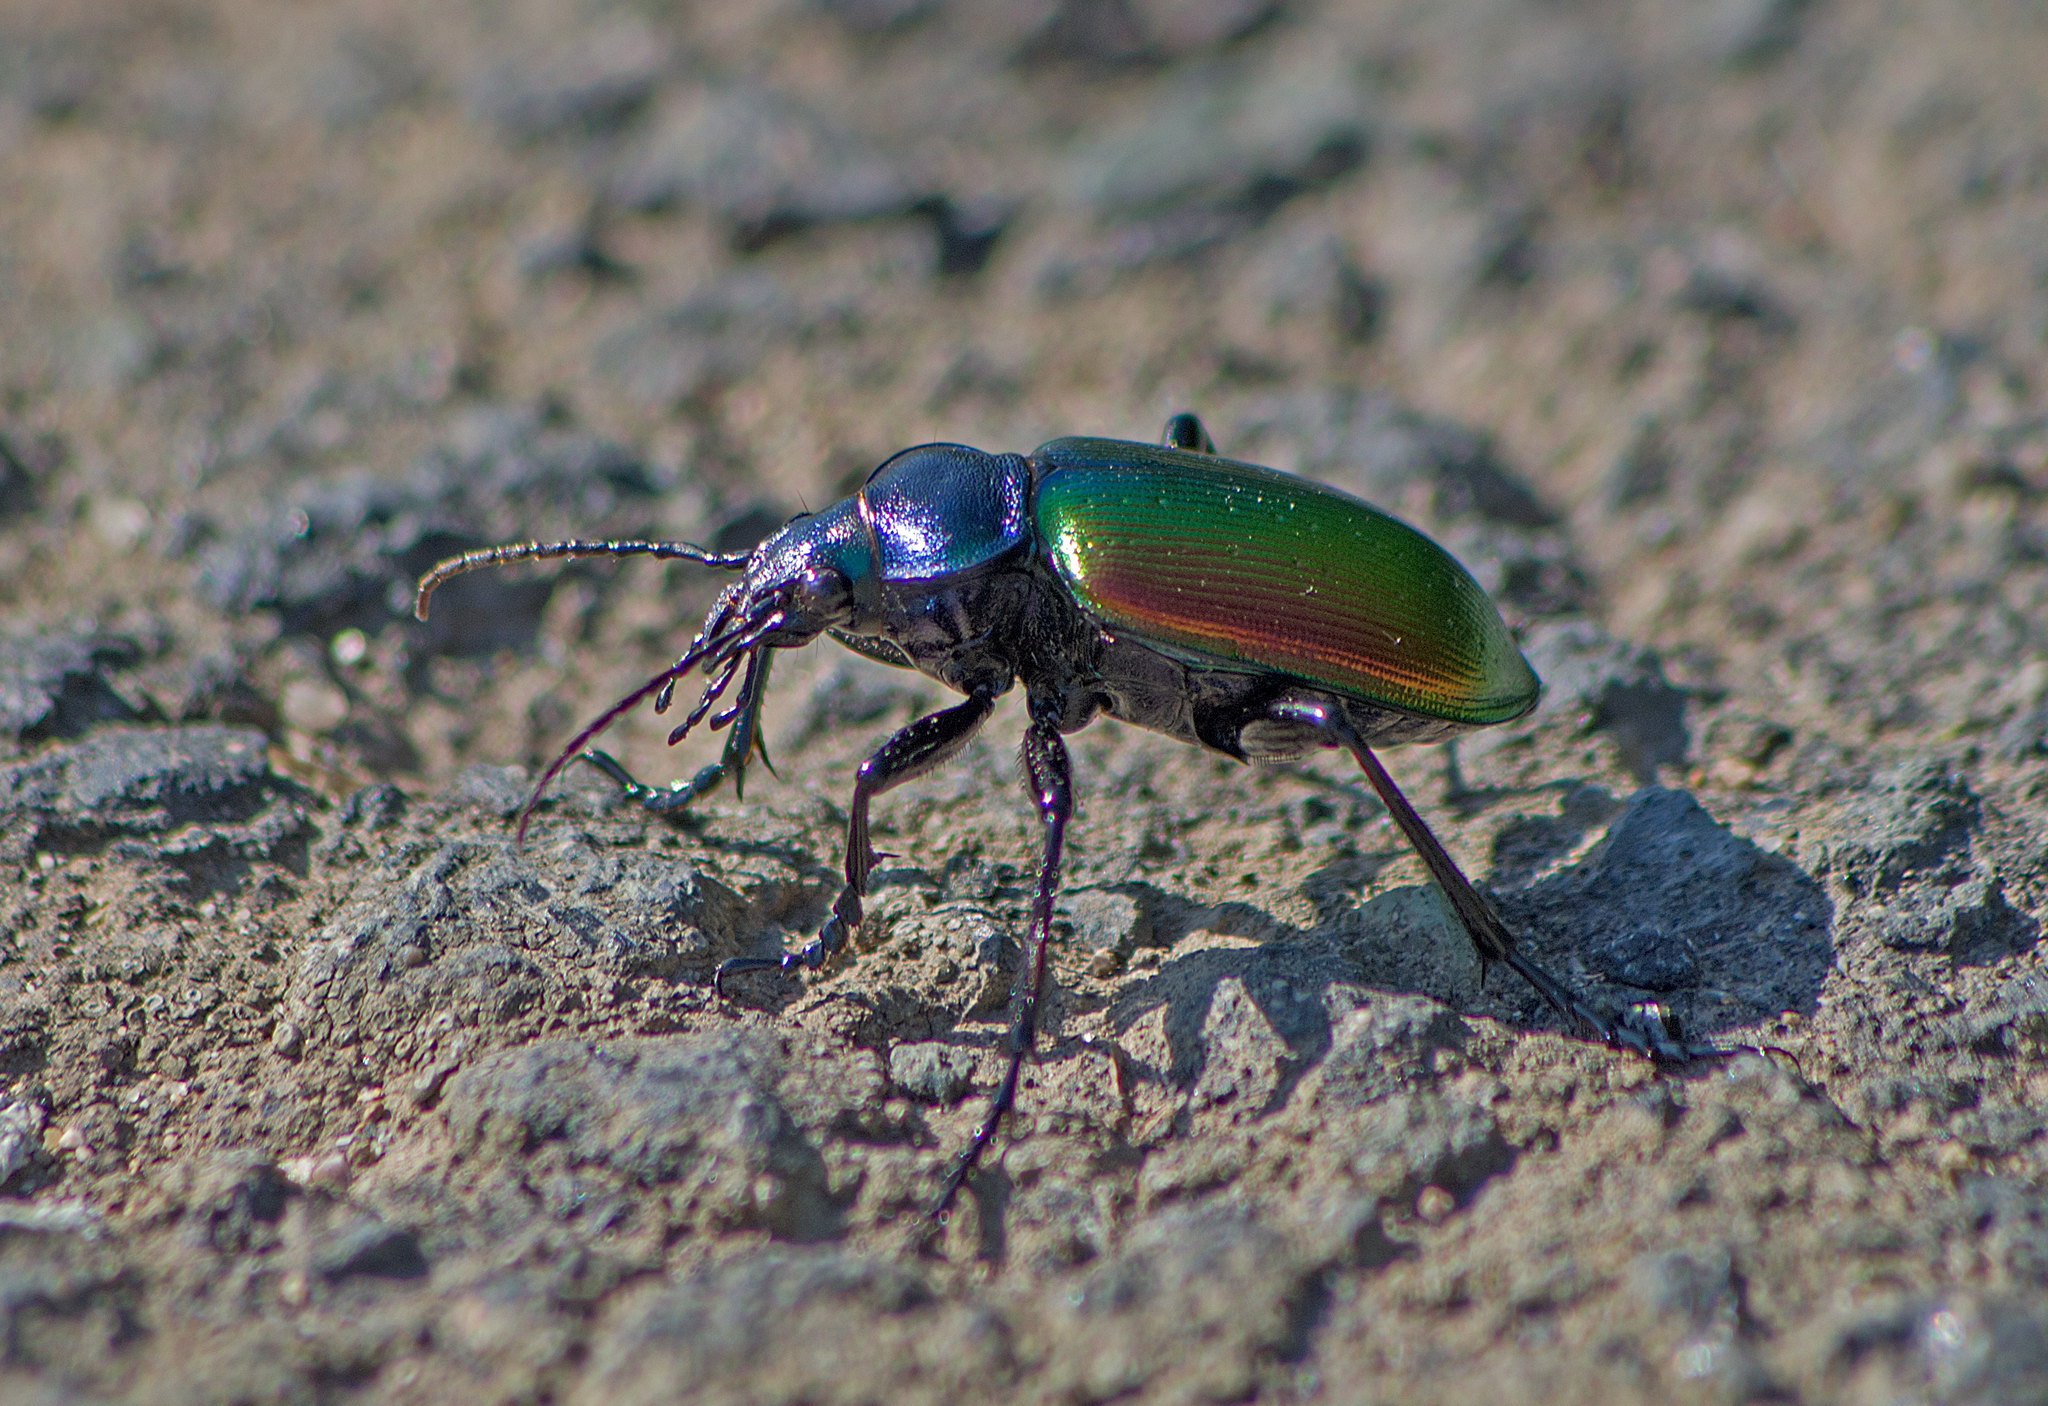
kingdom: Animalia
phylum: Arthropoda
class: Insecta
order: Coleoptera
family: Carabidae
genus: Calosoma
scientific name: Calosoma sycophanta
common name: Forest caterpillar hunter
